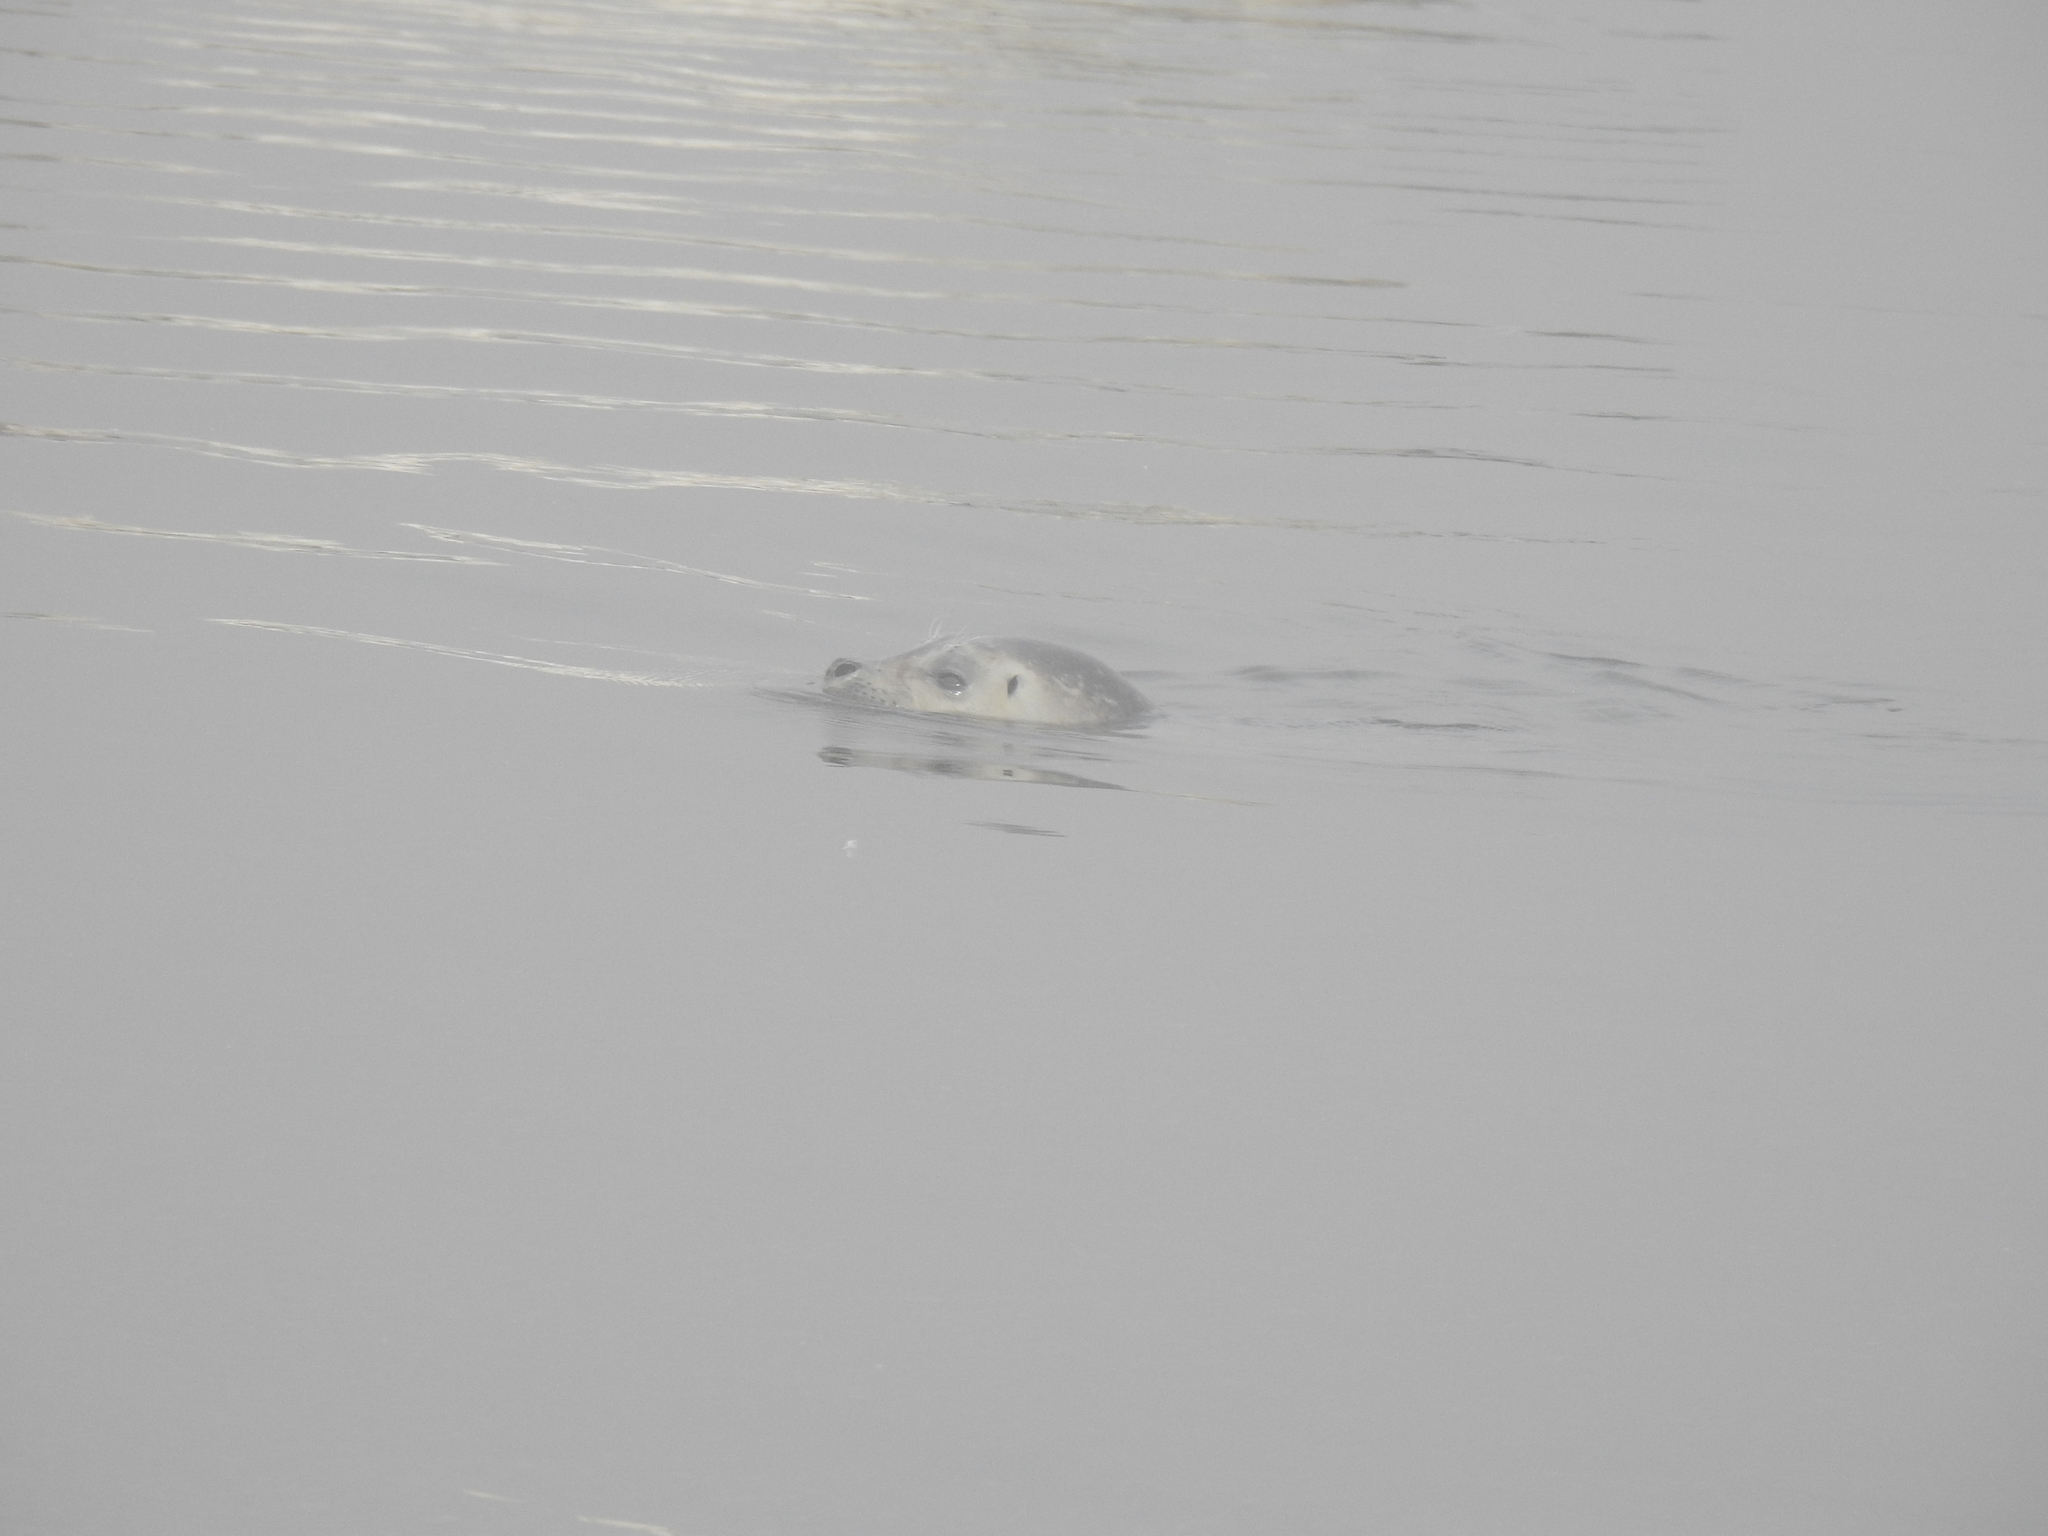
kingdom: Animalia
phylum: Chordata
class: Mammalia
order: Carnivora
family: Phocidae
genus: Phoca
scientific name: Phoca vitulina
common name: Harbor seal
